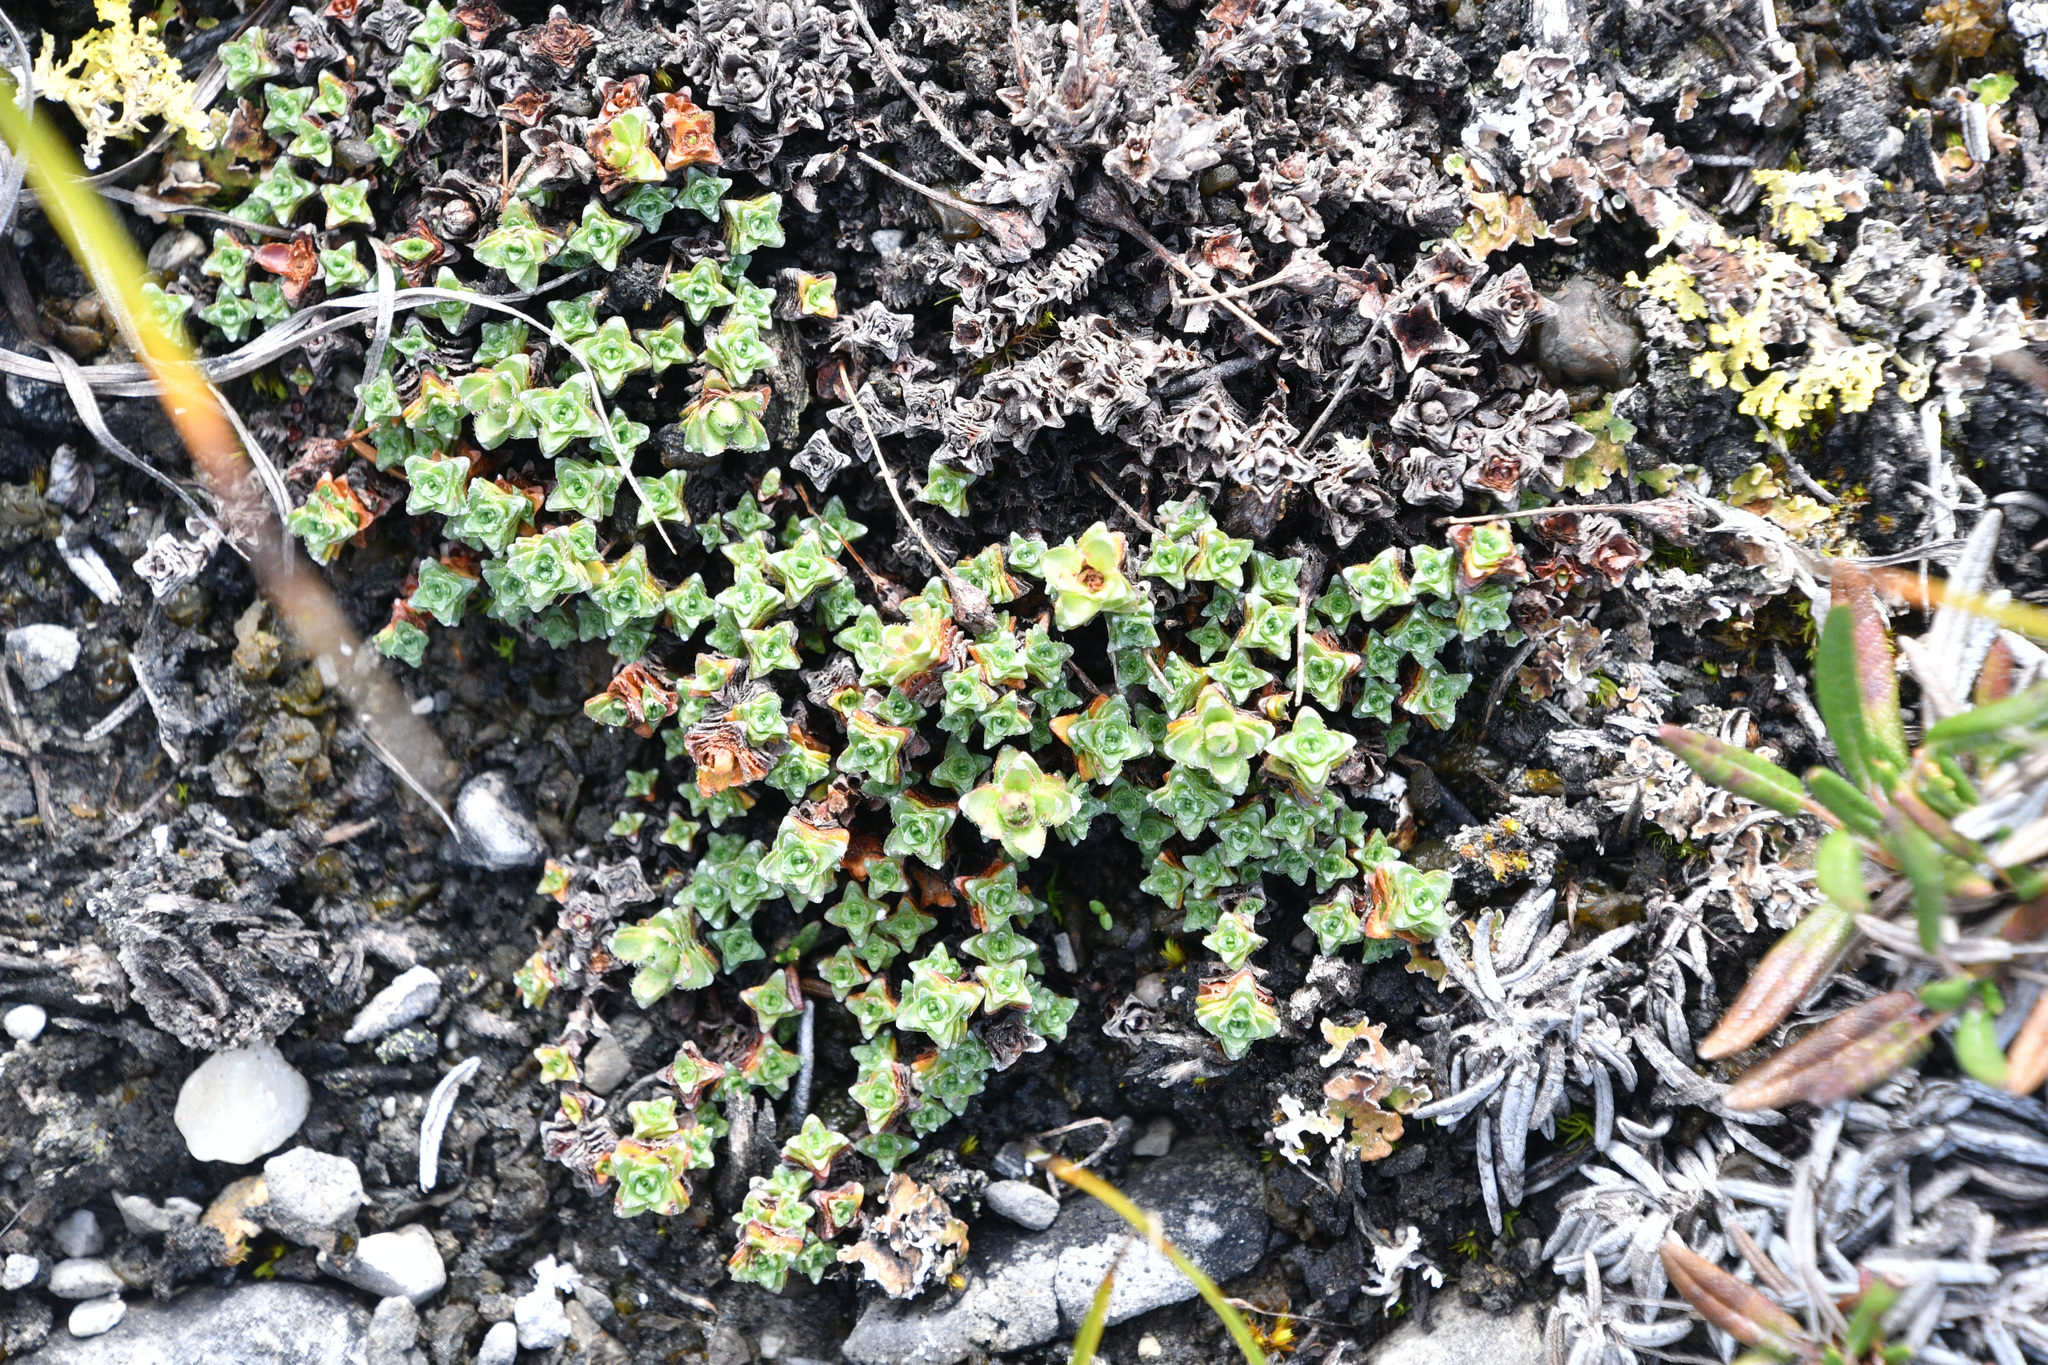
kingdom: Plantae
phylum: Tracheophyta
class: Magnoliopsida
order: Saxifragales
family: Saxifragaceae
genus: Saxifraga
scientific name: Saxifraga oppositifolia
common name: Purple saxifrage
